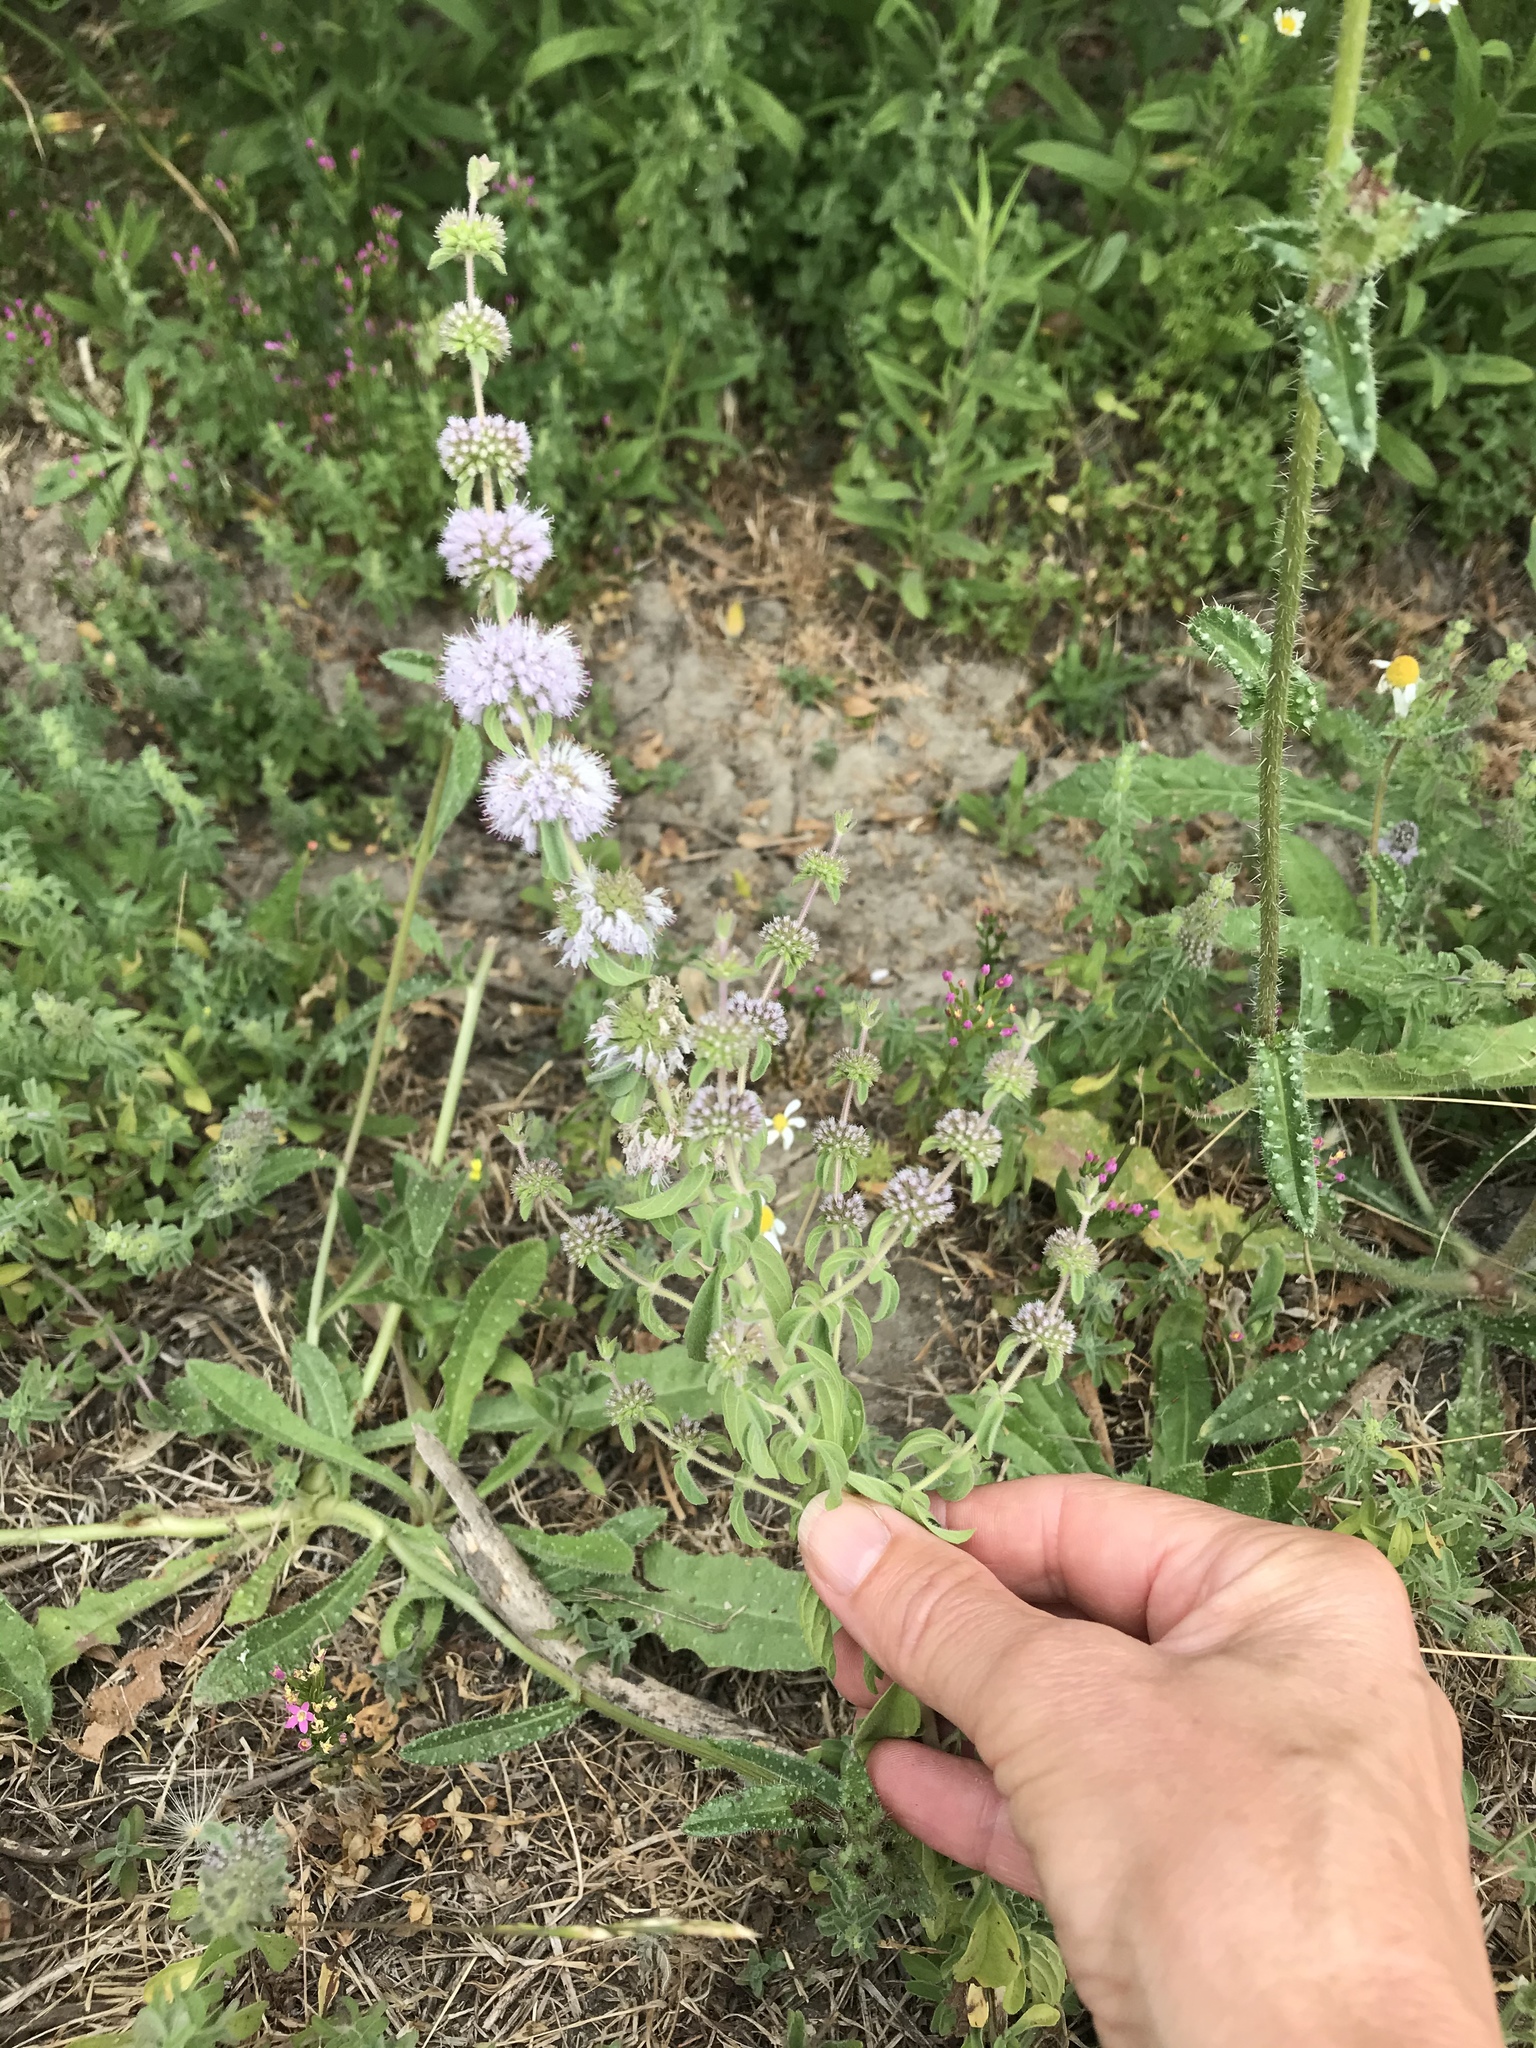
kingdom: Plantae
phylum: Tracheophyta
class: Magnoliopsida
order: Lamiales
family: Lamiaceae
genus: Mentha
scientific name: Mentha pulegium
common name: Pennyroyal
